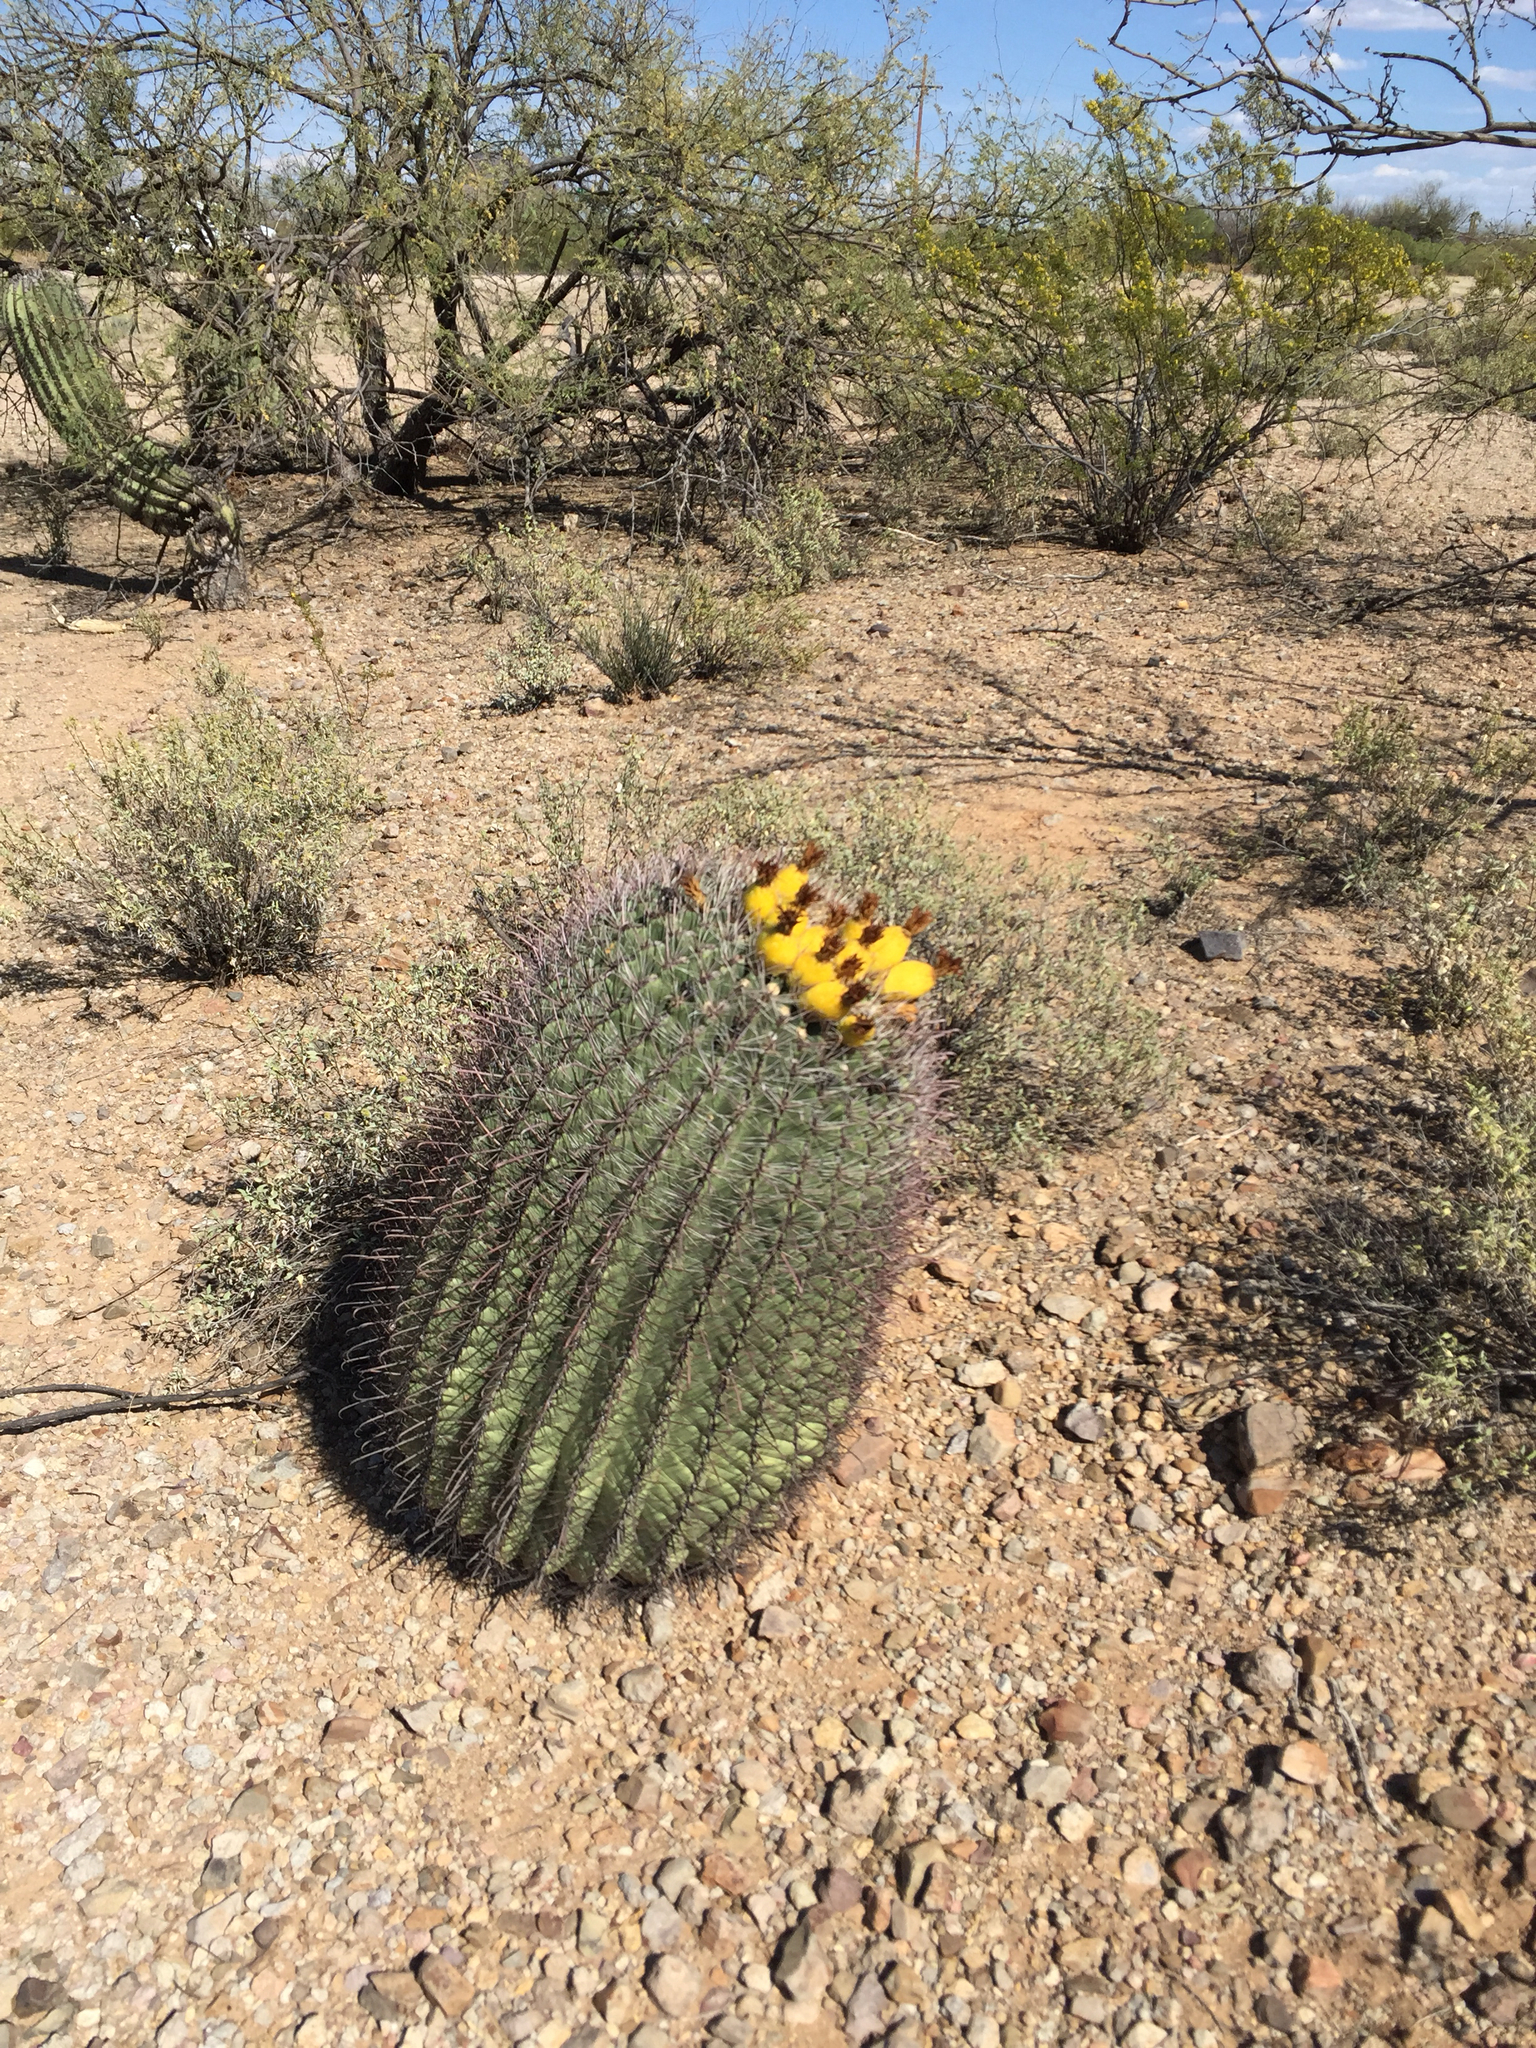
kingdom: Plantae
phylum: Tracheophyta
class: Magnoliopsida
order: Caryophyllales
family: Cactaceae
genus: Ferocactus
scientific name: Ferocactus wislizeni
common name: Candy barrel cactus
